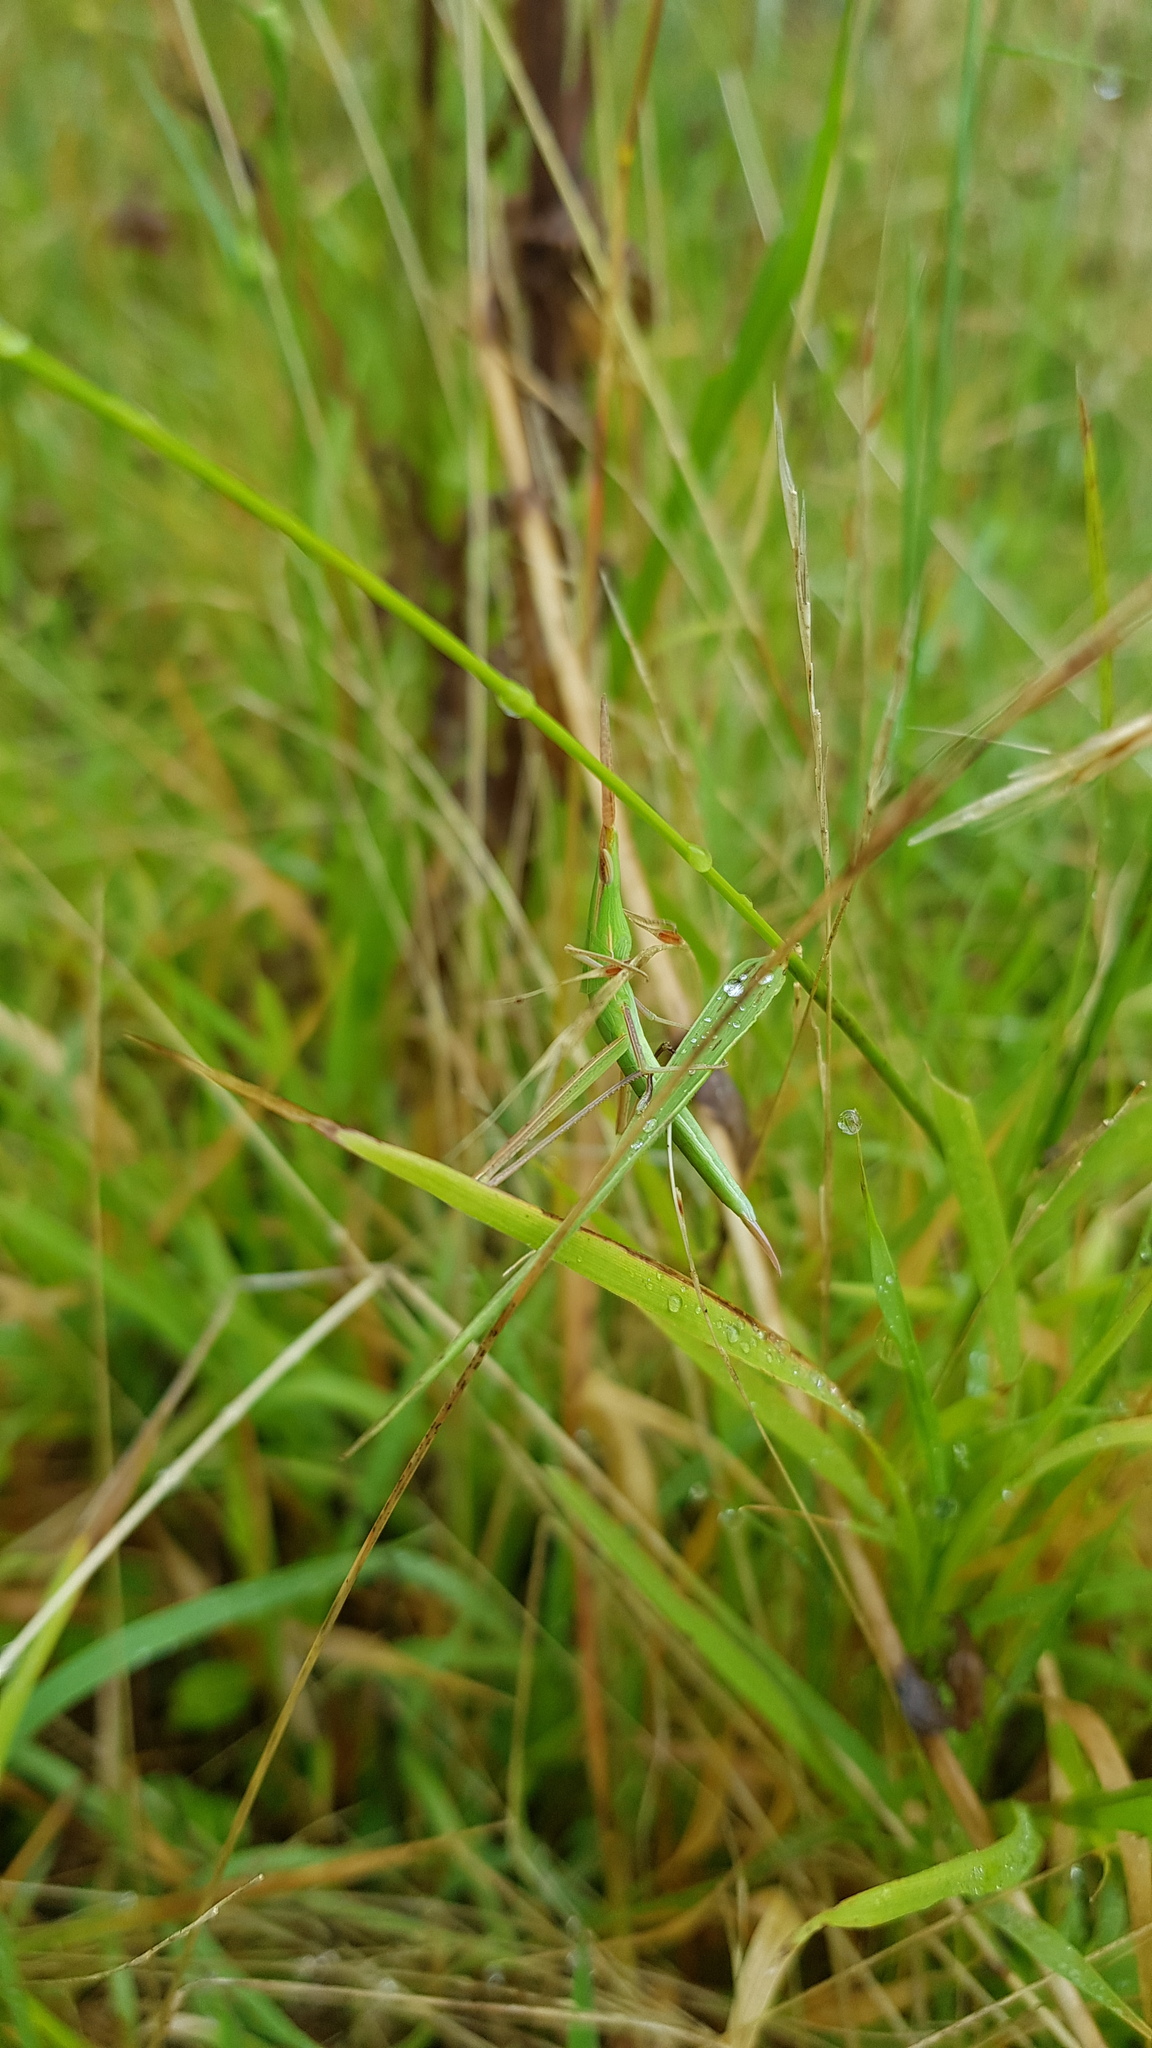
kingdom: Animalia
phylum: Arthropoda
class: Insecta
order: Orthoptera
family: Acrididae
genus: Acrida
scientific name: Acrida conica
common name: Giant green slantface
